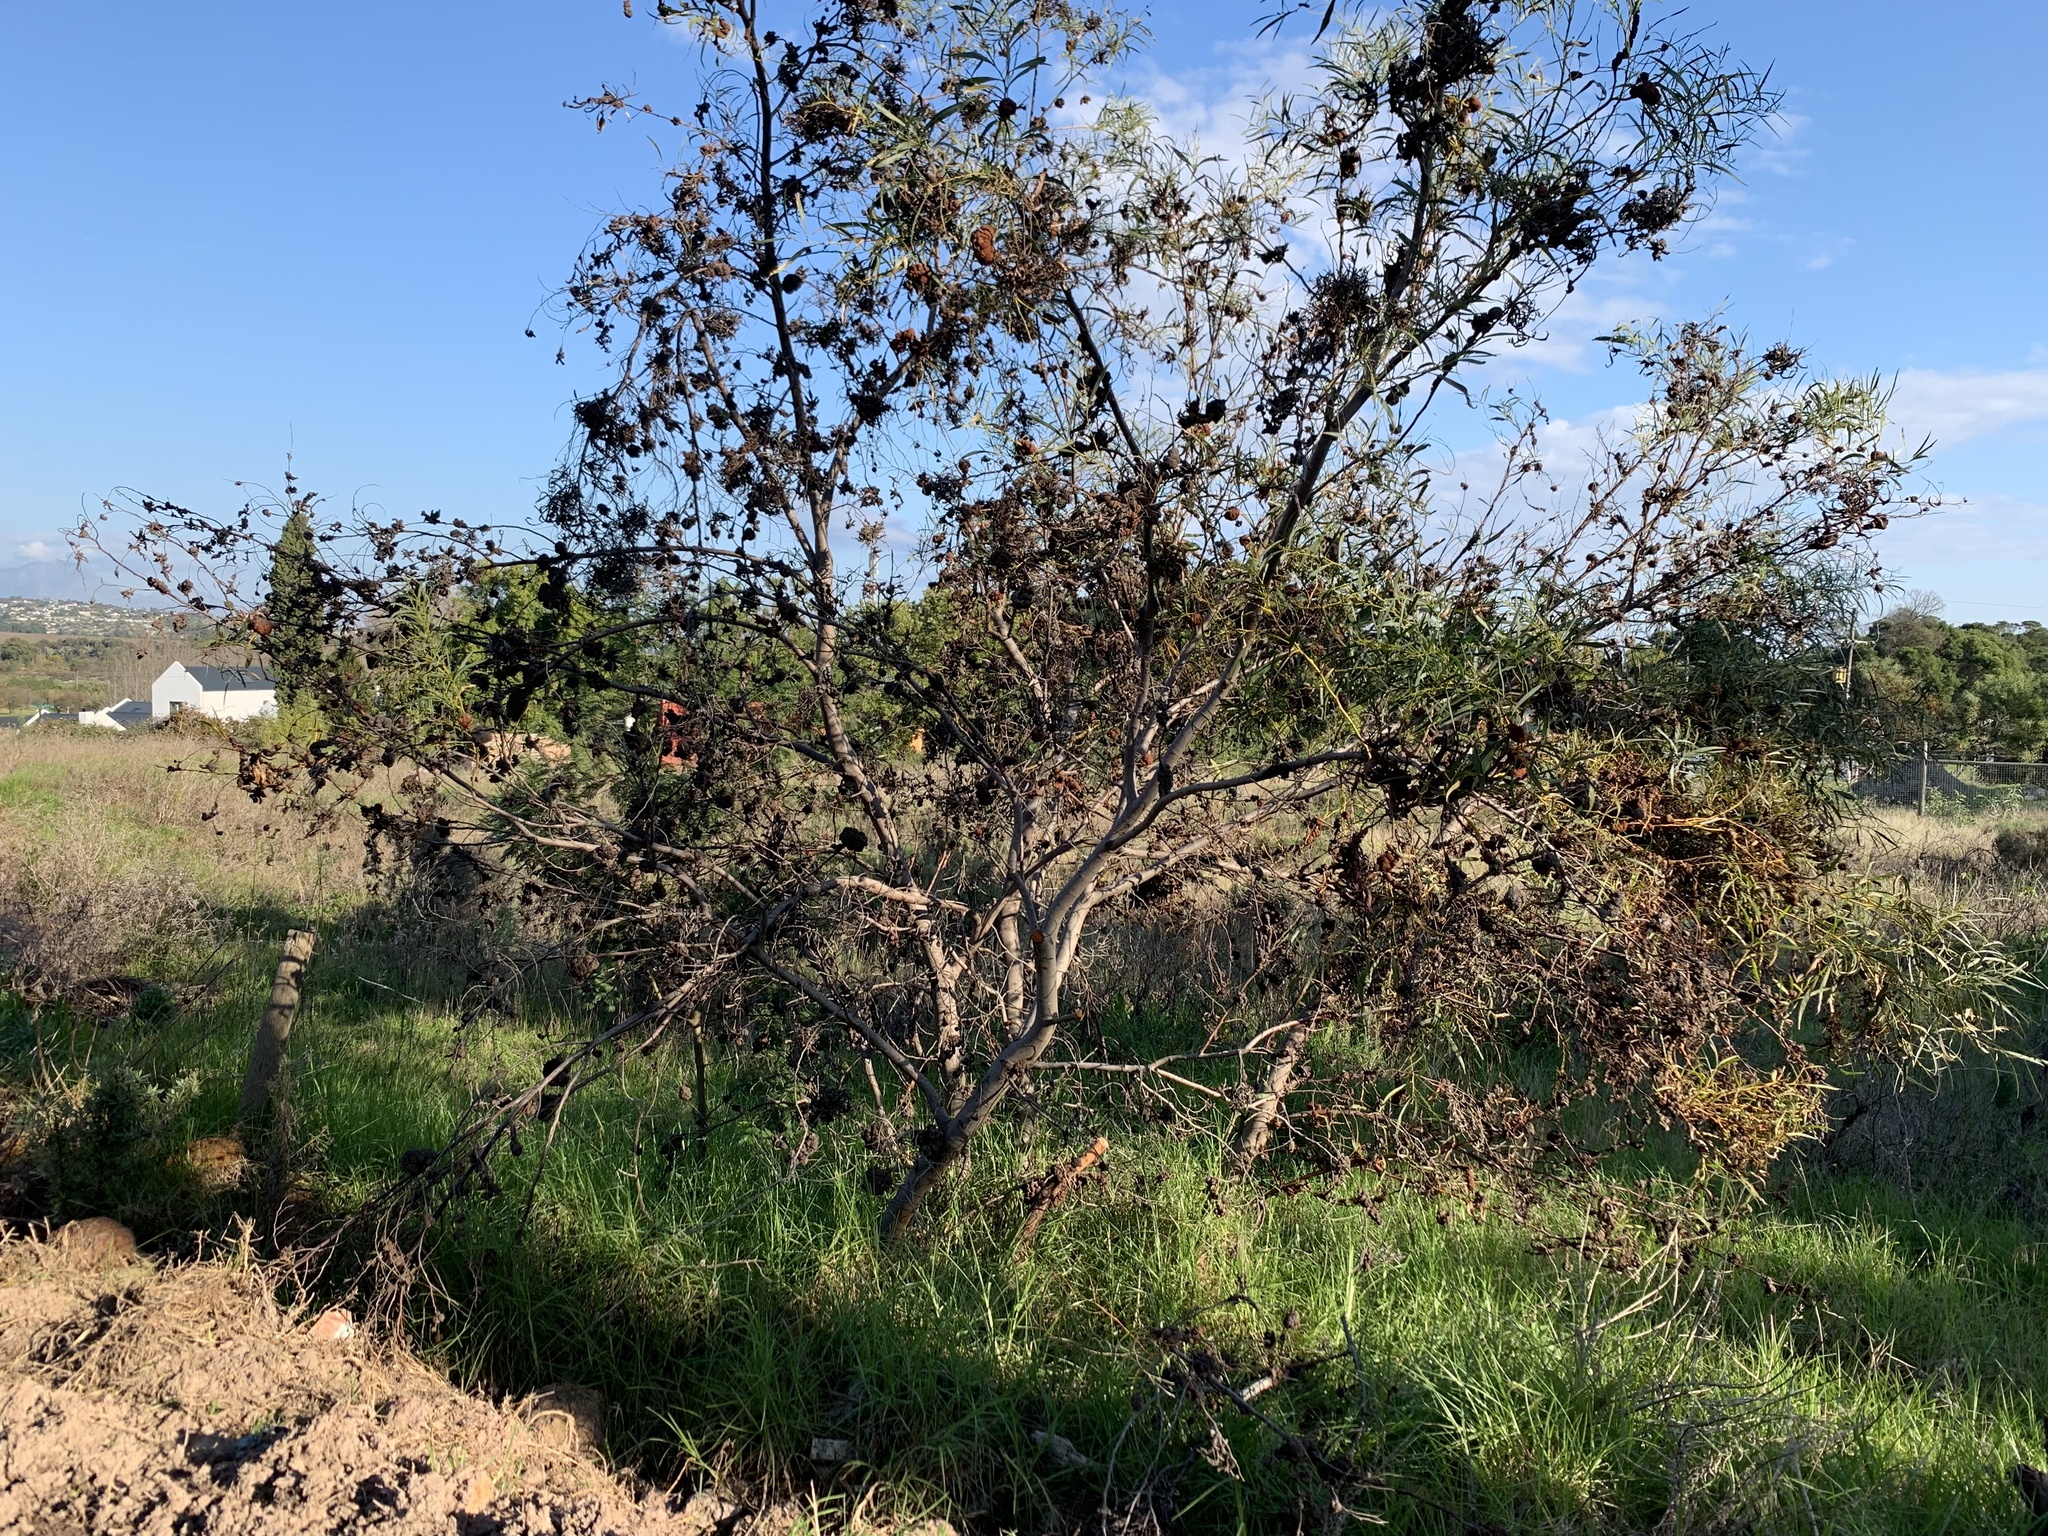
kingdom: Plantae
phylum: Tracheophyta
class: Magnoliopsida
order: Fabales
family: Fabaceae
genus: Acacia
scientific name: Acacia saligna
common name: Orange wattle
